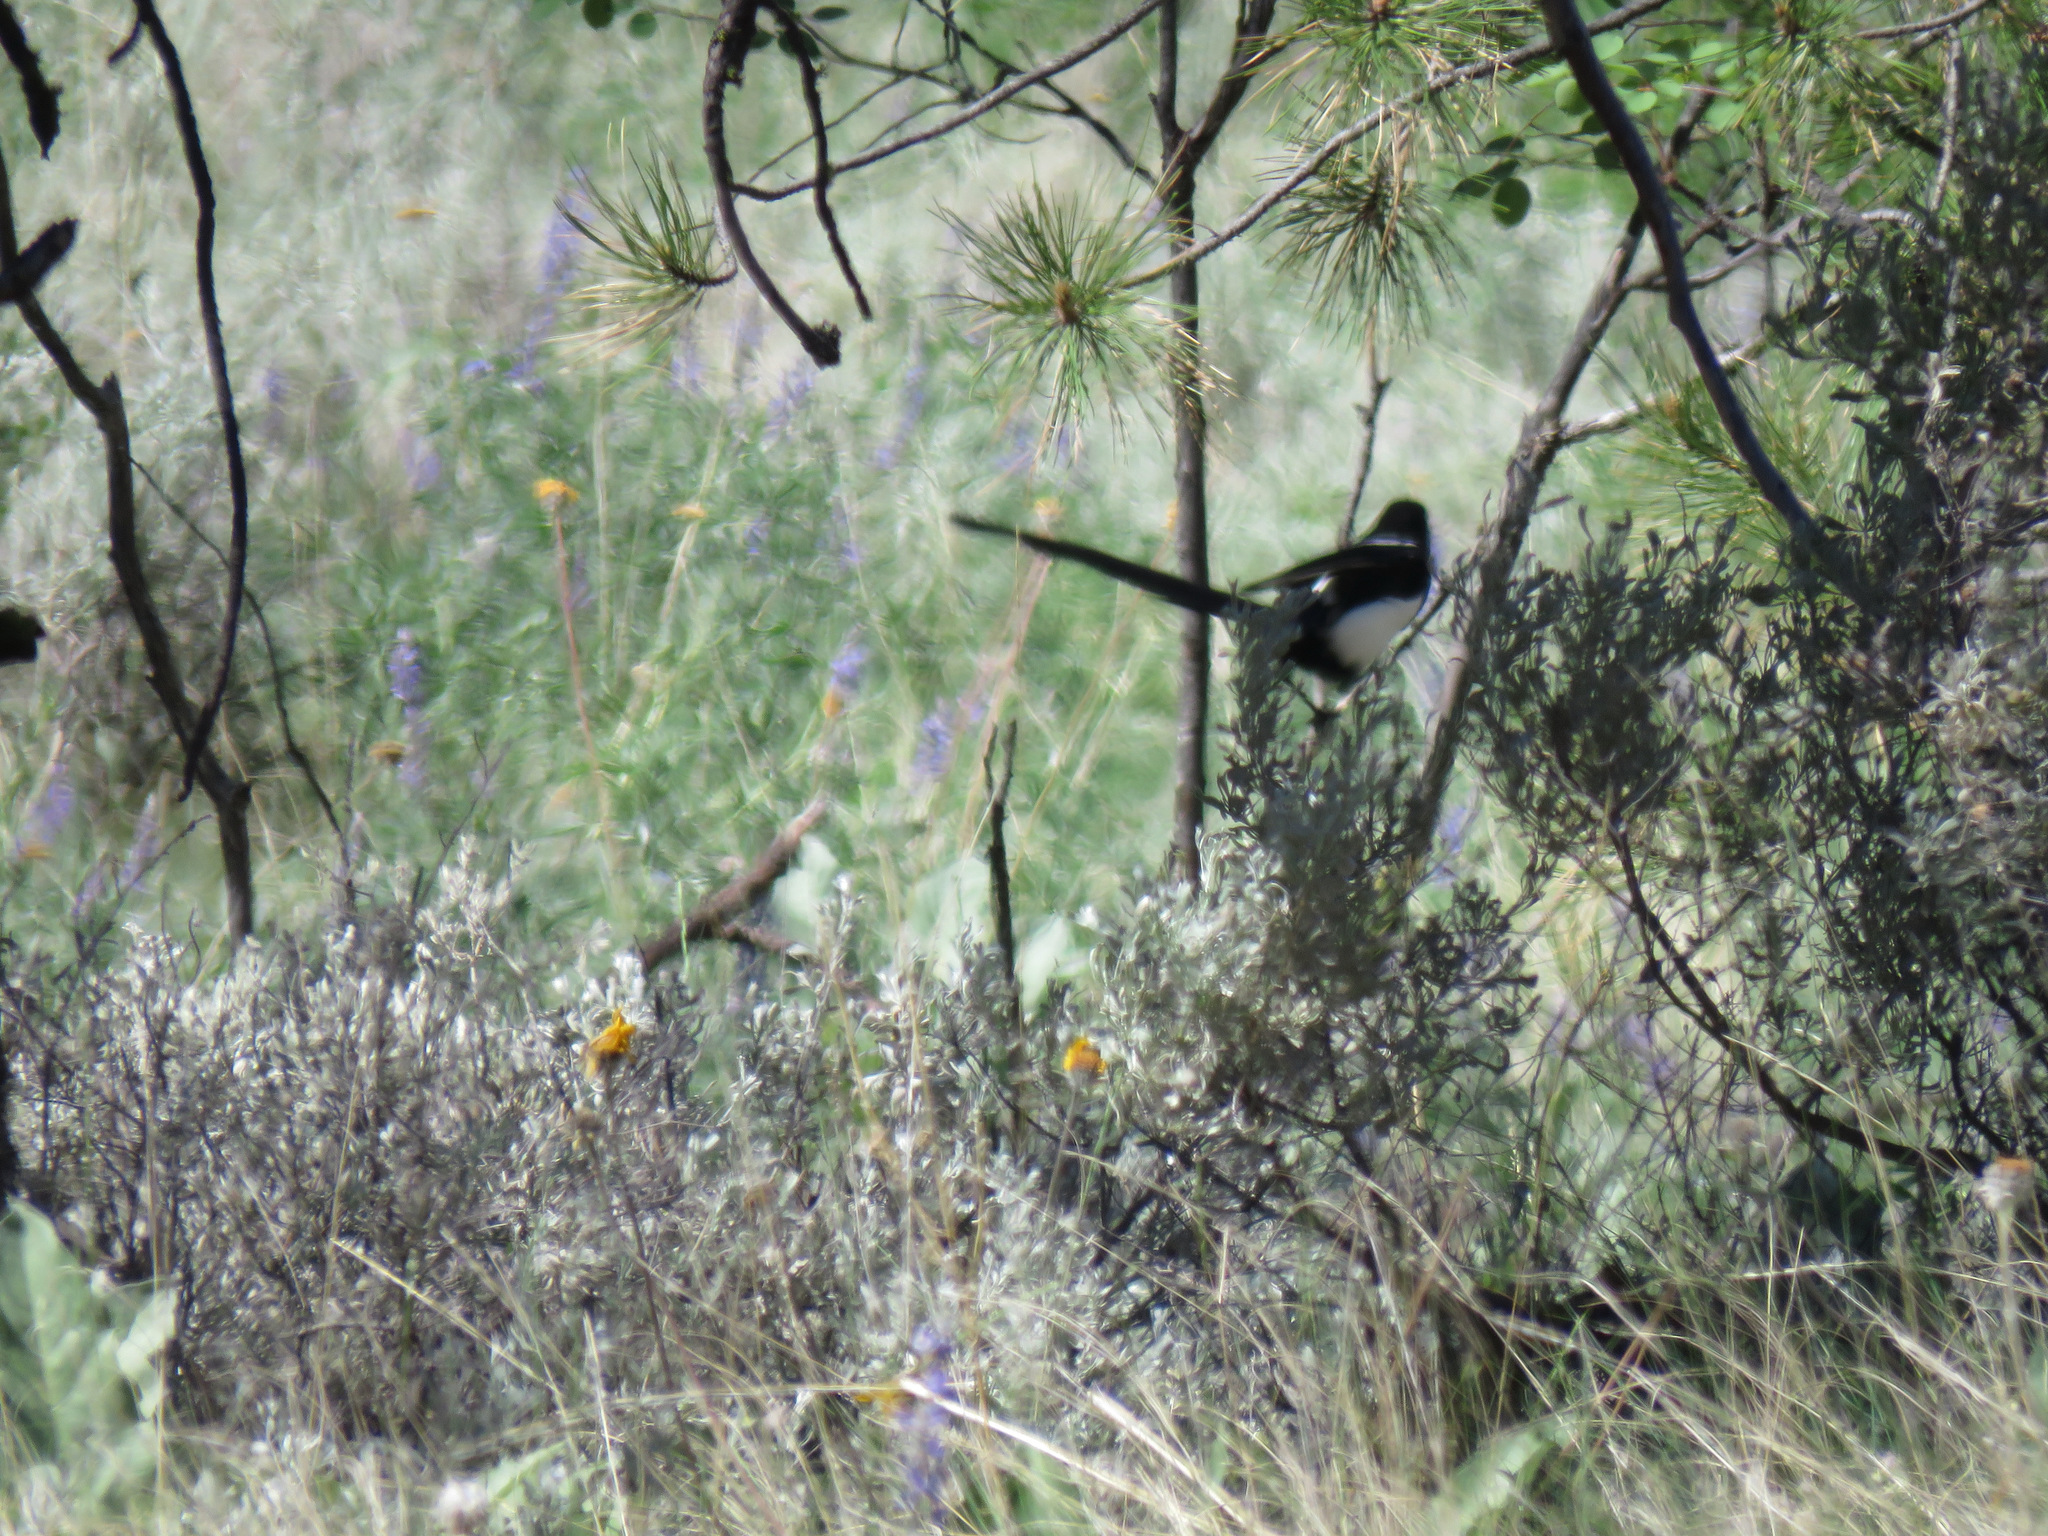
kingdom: Animalia
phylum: Chordata
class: Aves
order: Passeriformes
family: Corvidae
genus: Pica
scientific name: Pica hudsonia
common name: Black-billed magpie
